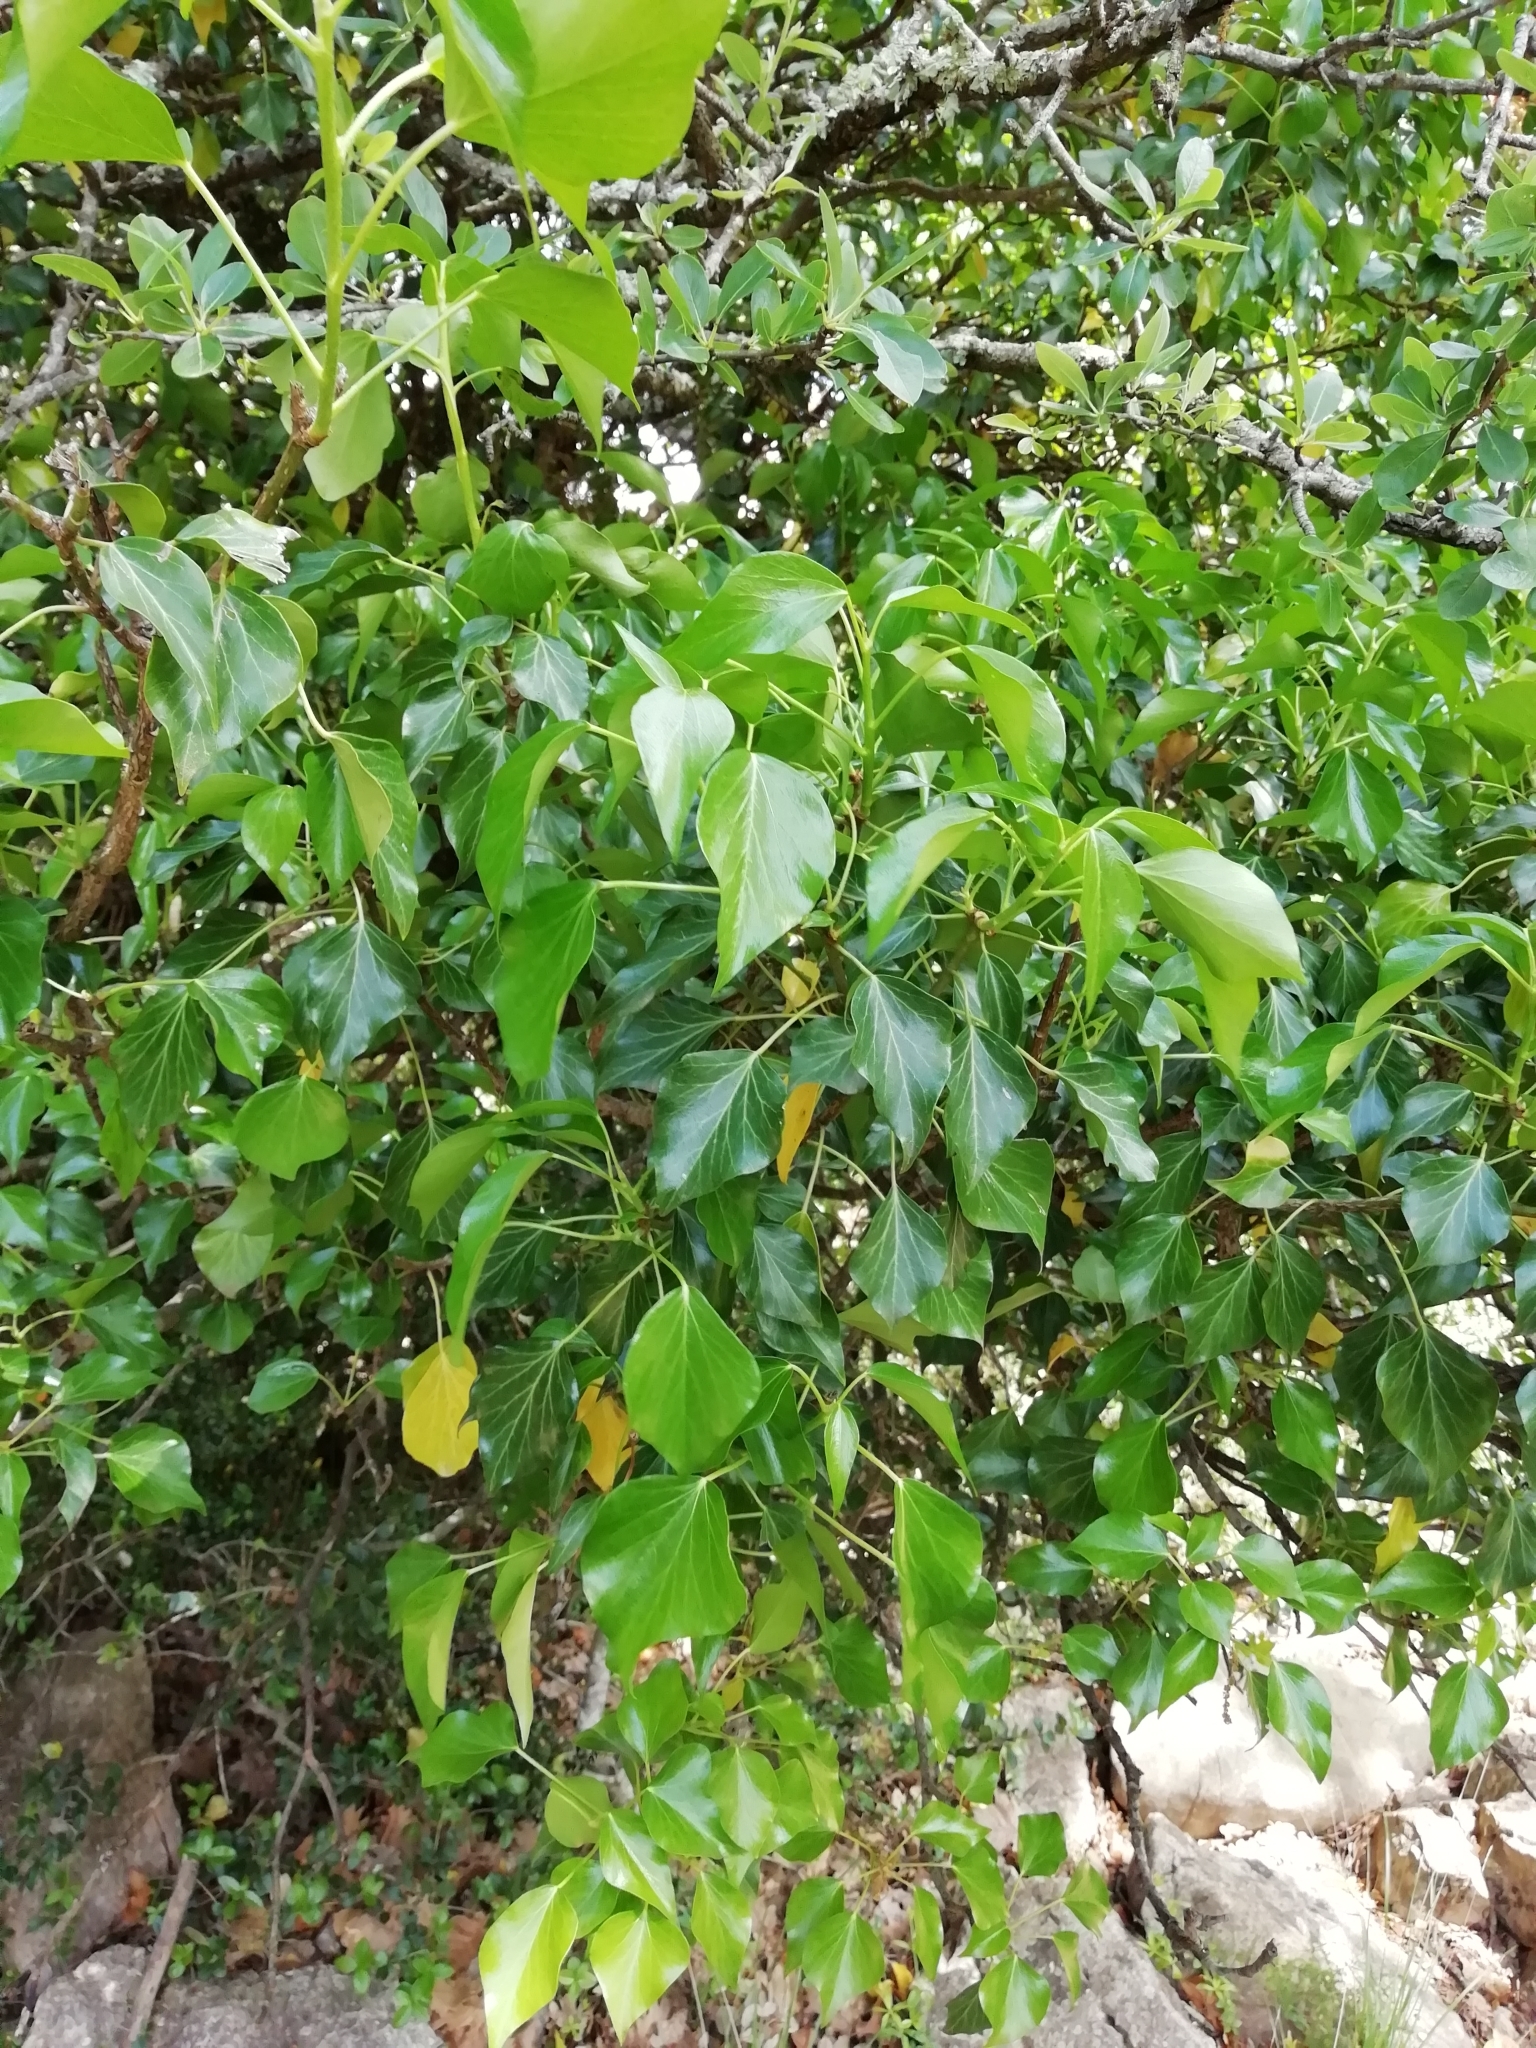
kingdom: Plantae
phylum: Tracheophyta
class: Magnoliopsida
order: Apiales
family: Araliaceae
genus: Hedera
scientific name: Hedera helix
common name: Ivy
